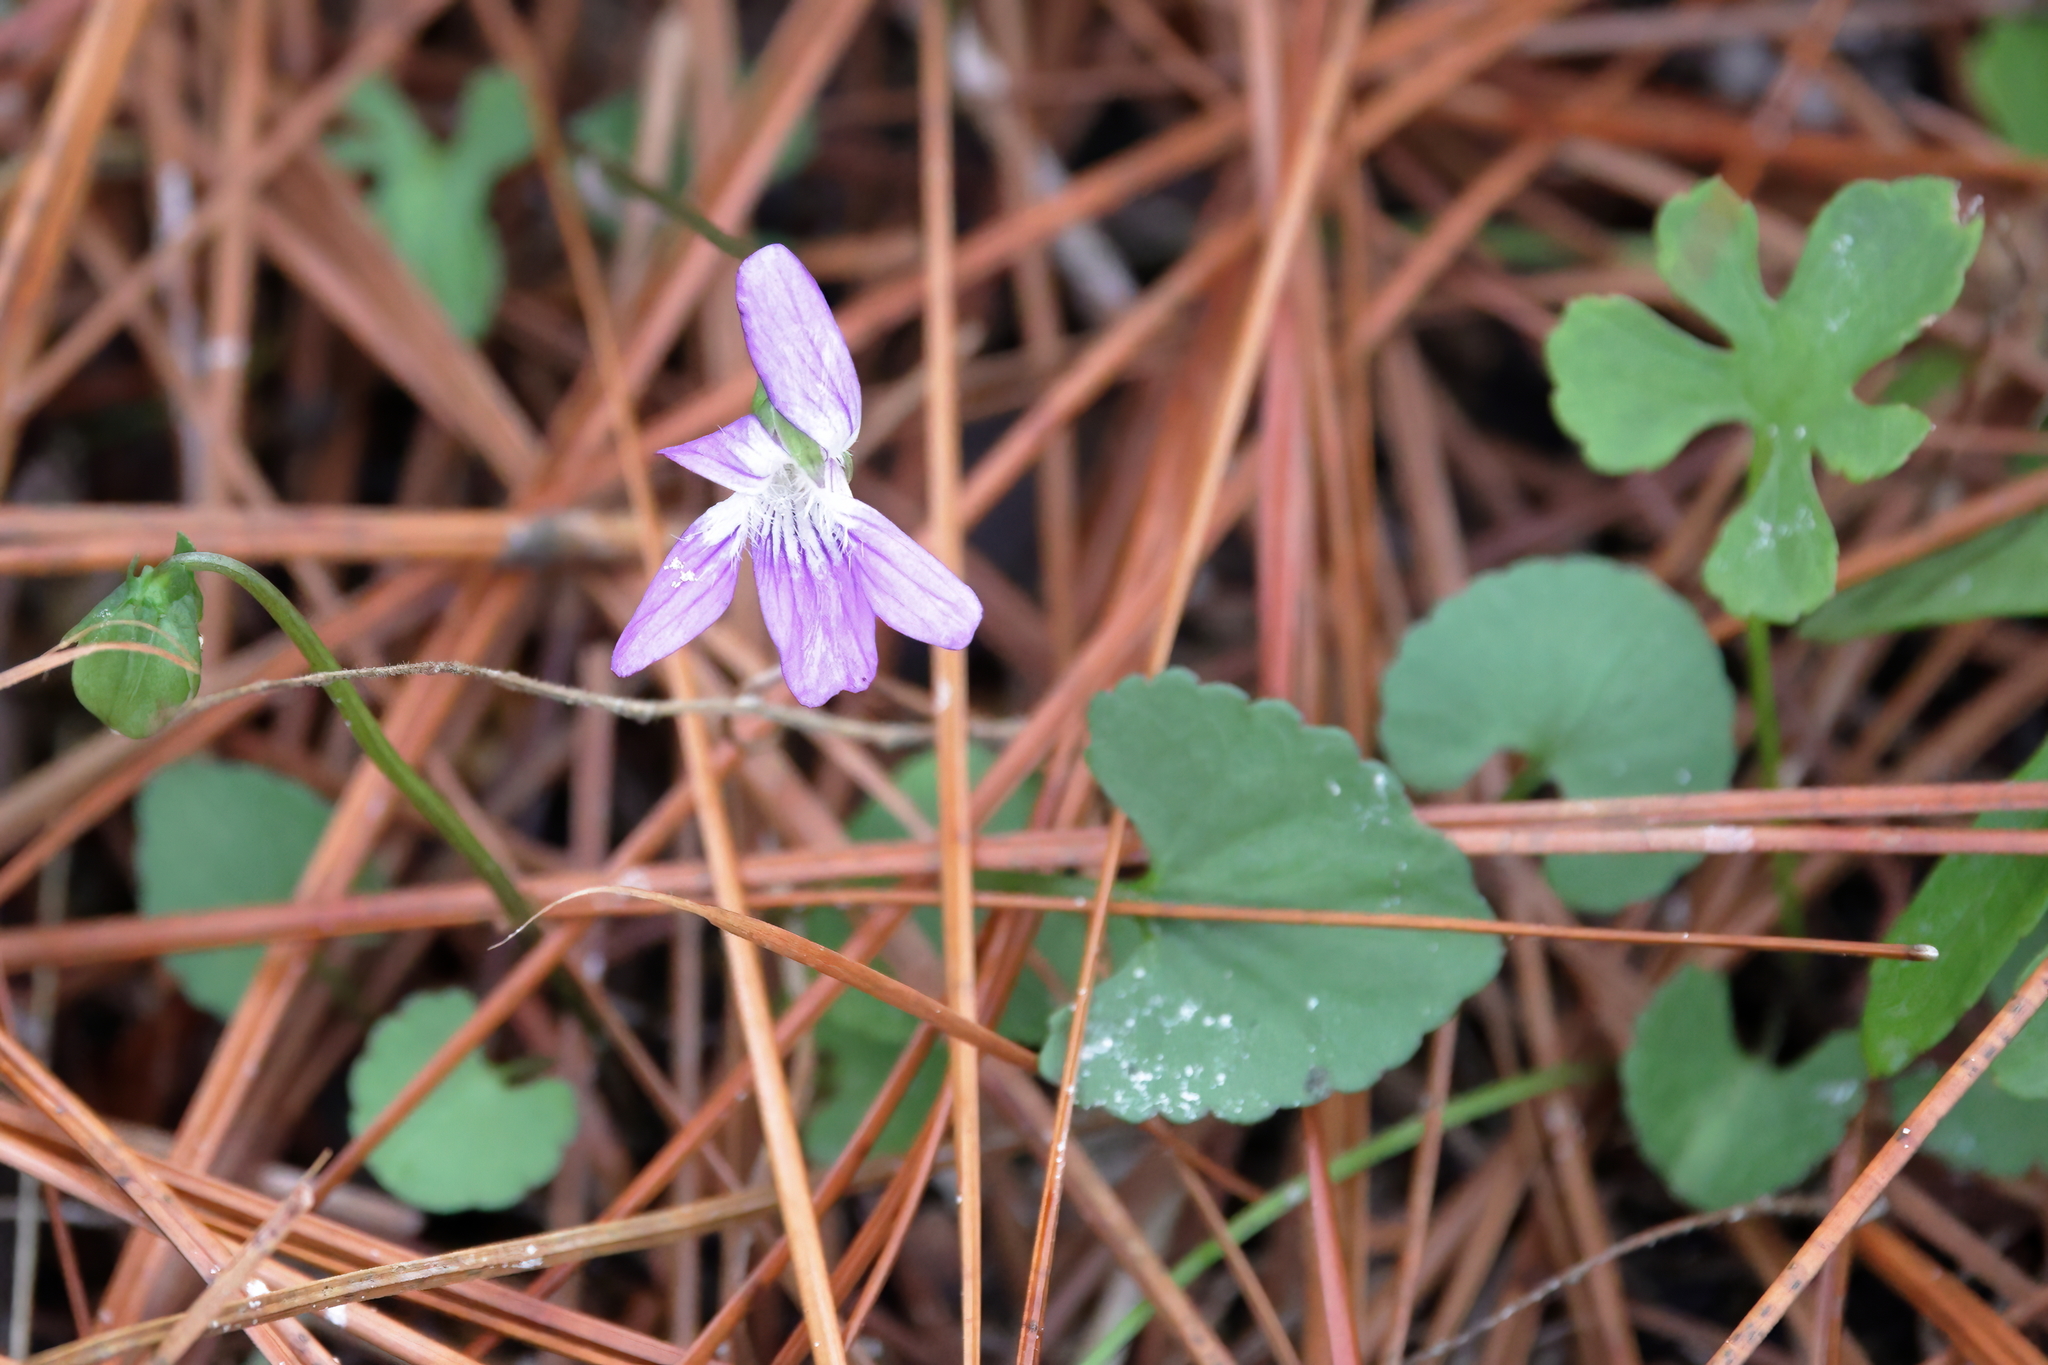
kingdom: Plantae
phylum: Tracheophyta
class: Magnoliopsida
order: Malpighiales
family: Violaceae
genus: Viola
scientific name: Viola septemloba
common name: Southern coast violet
